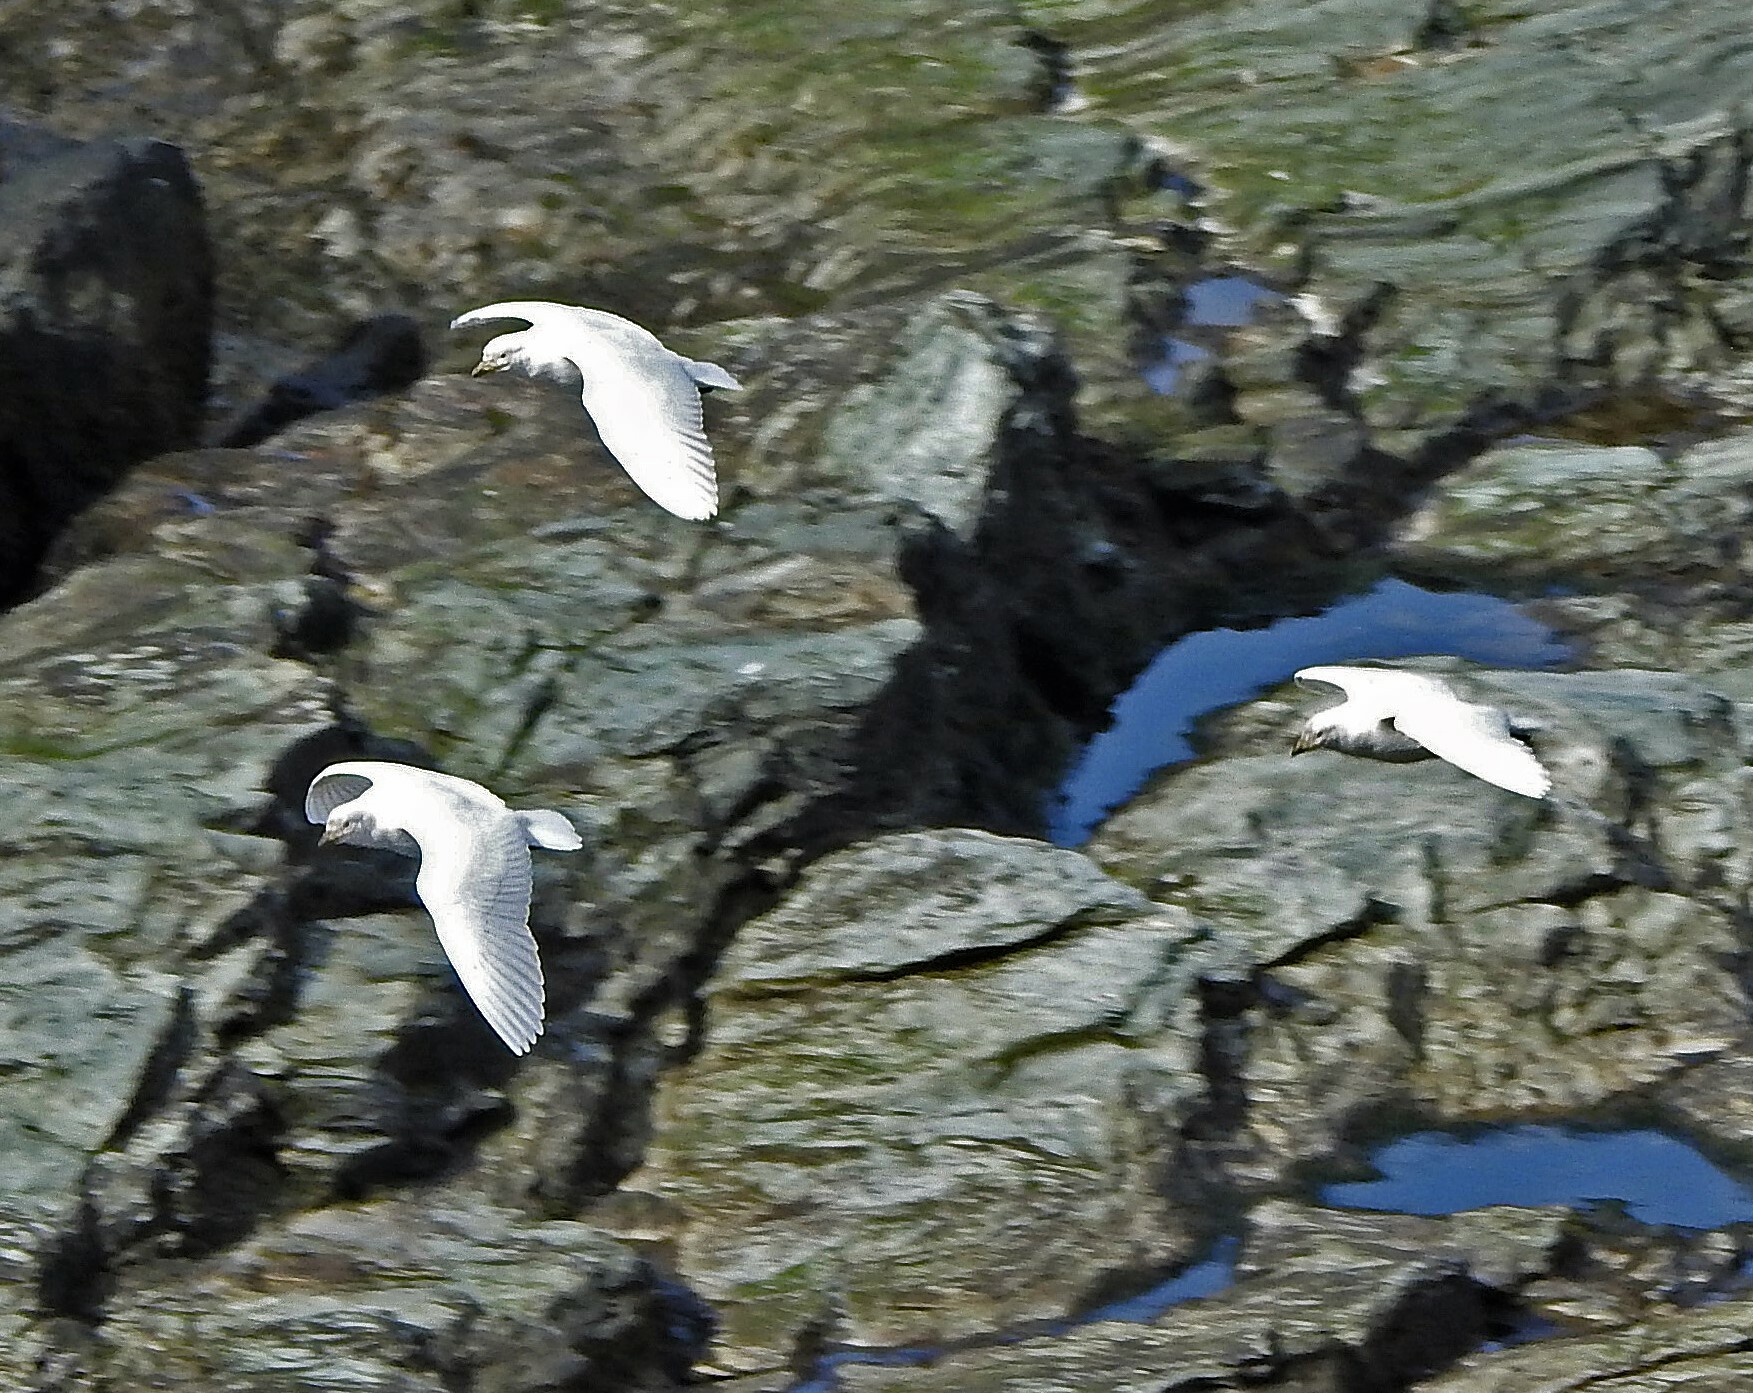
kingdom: Animalia
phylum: Chordata
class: Aves
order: Charadriiformes
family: Chionidae
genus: Chionis
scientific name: Chionis albus
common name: Snowy sheathbill
